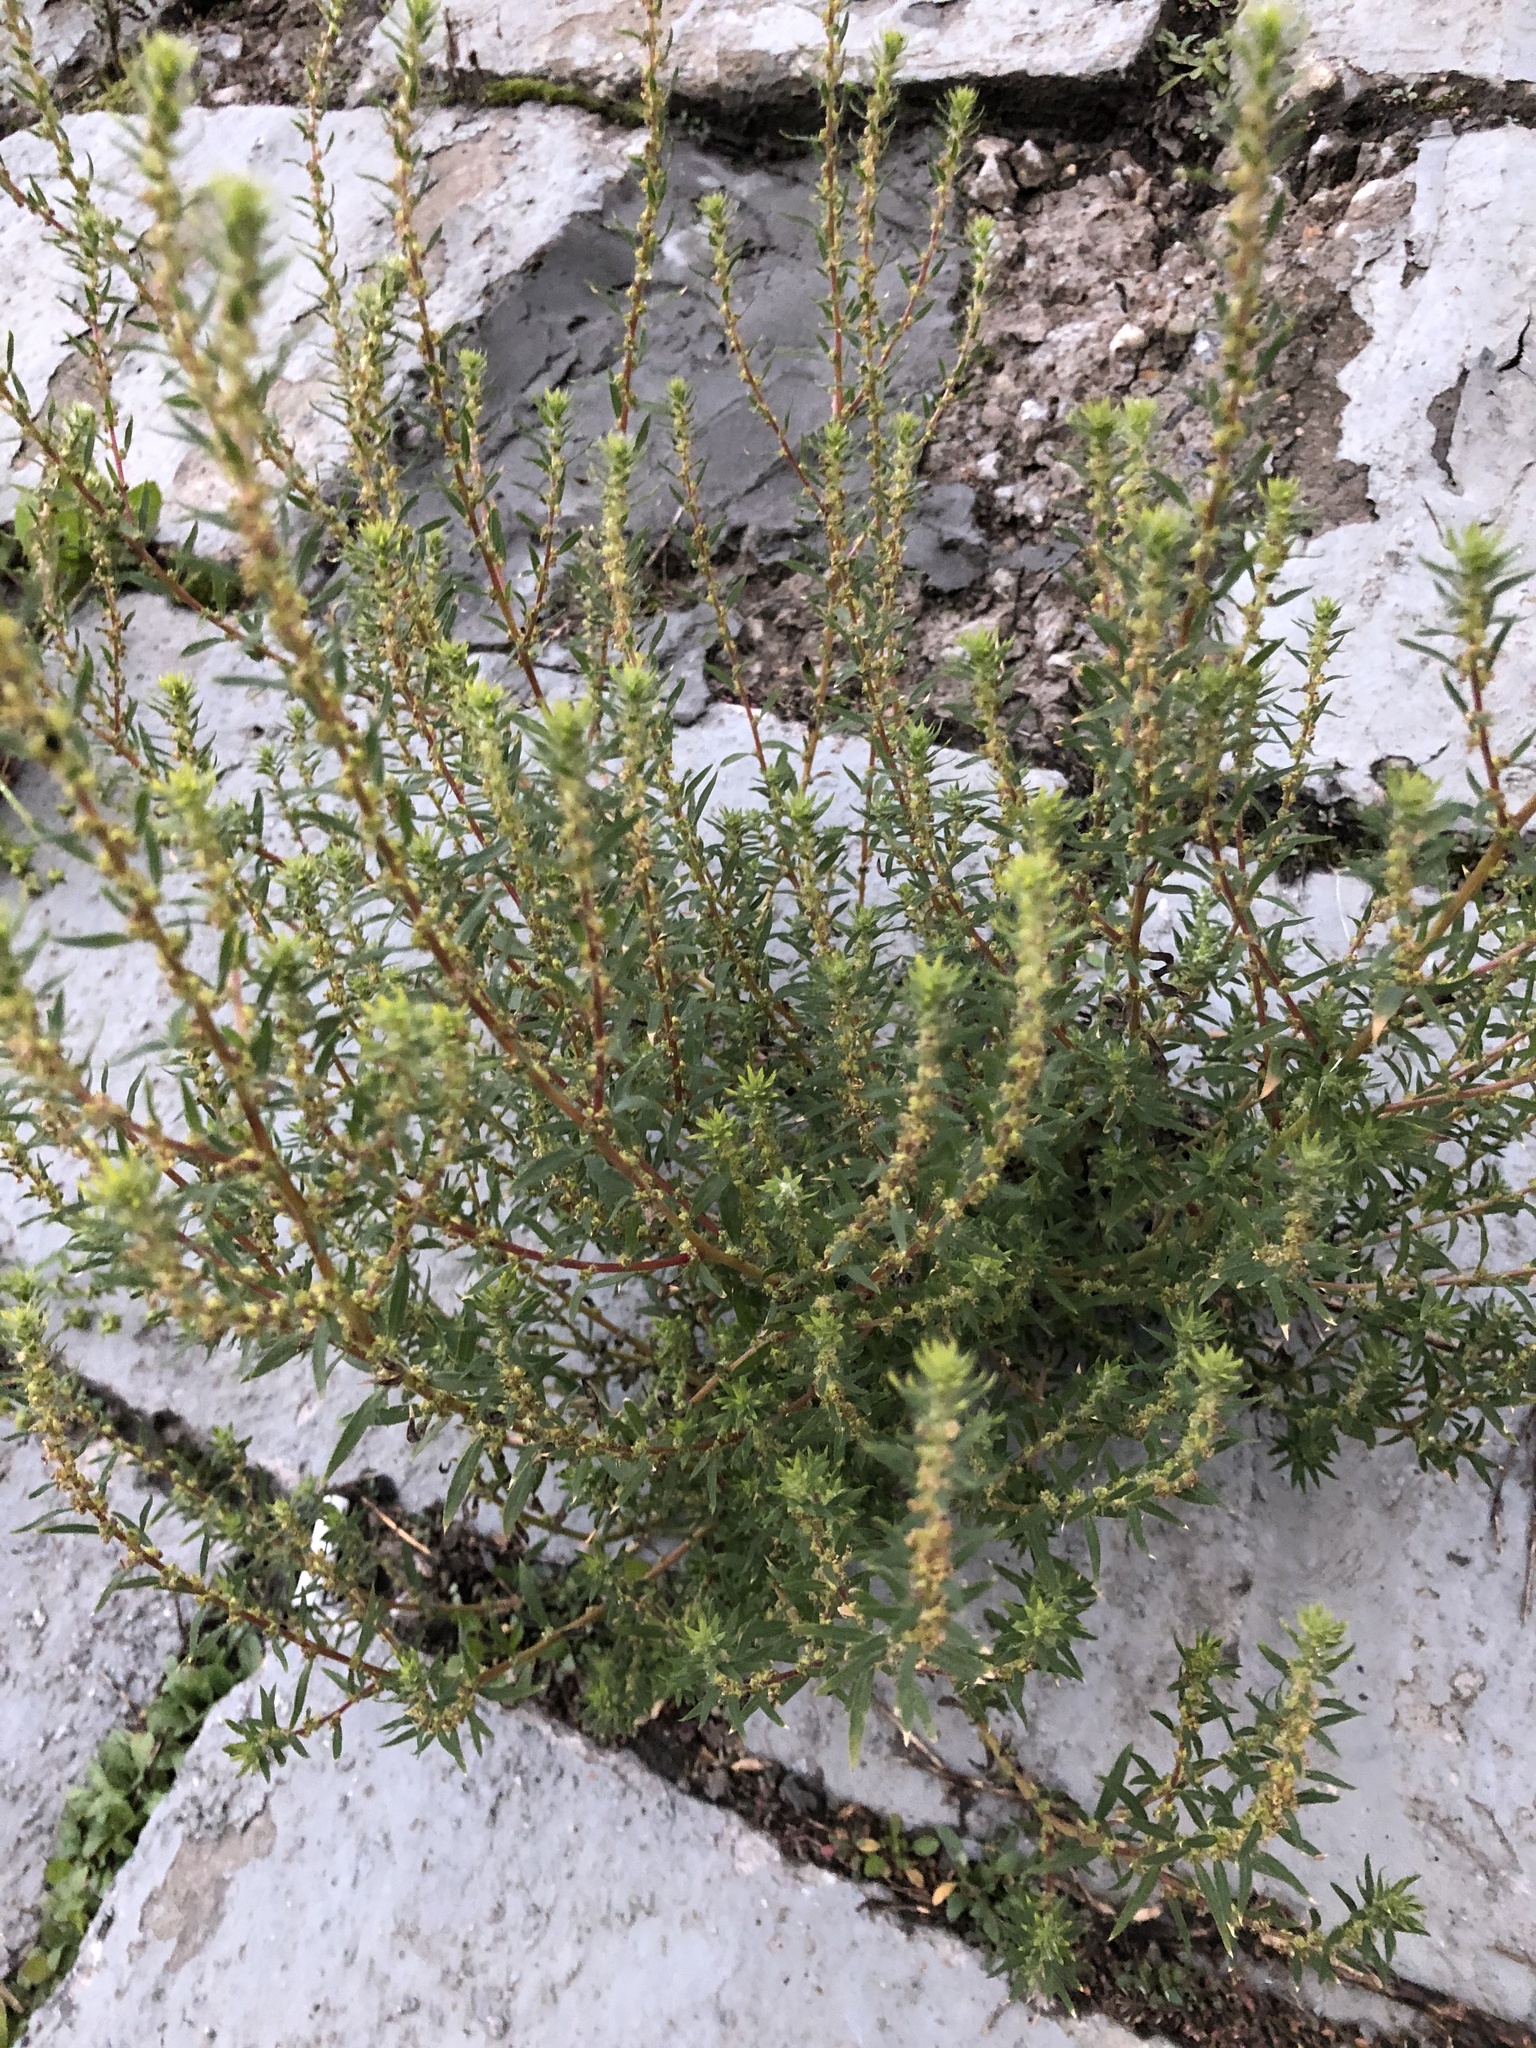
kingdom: Plantae
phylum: Tracheophyta
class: Magnoliopsida
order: Caryophyllales
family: Amaranthaceae
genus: Bassia
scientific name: Bassia scoparia
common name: Belvedere
